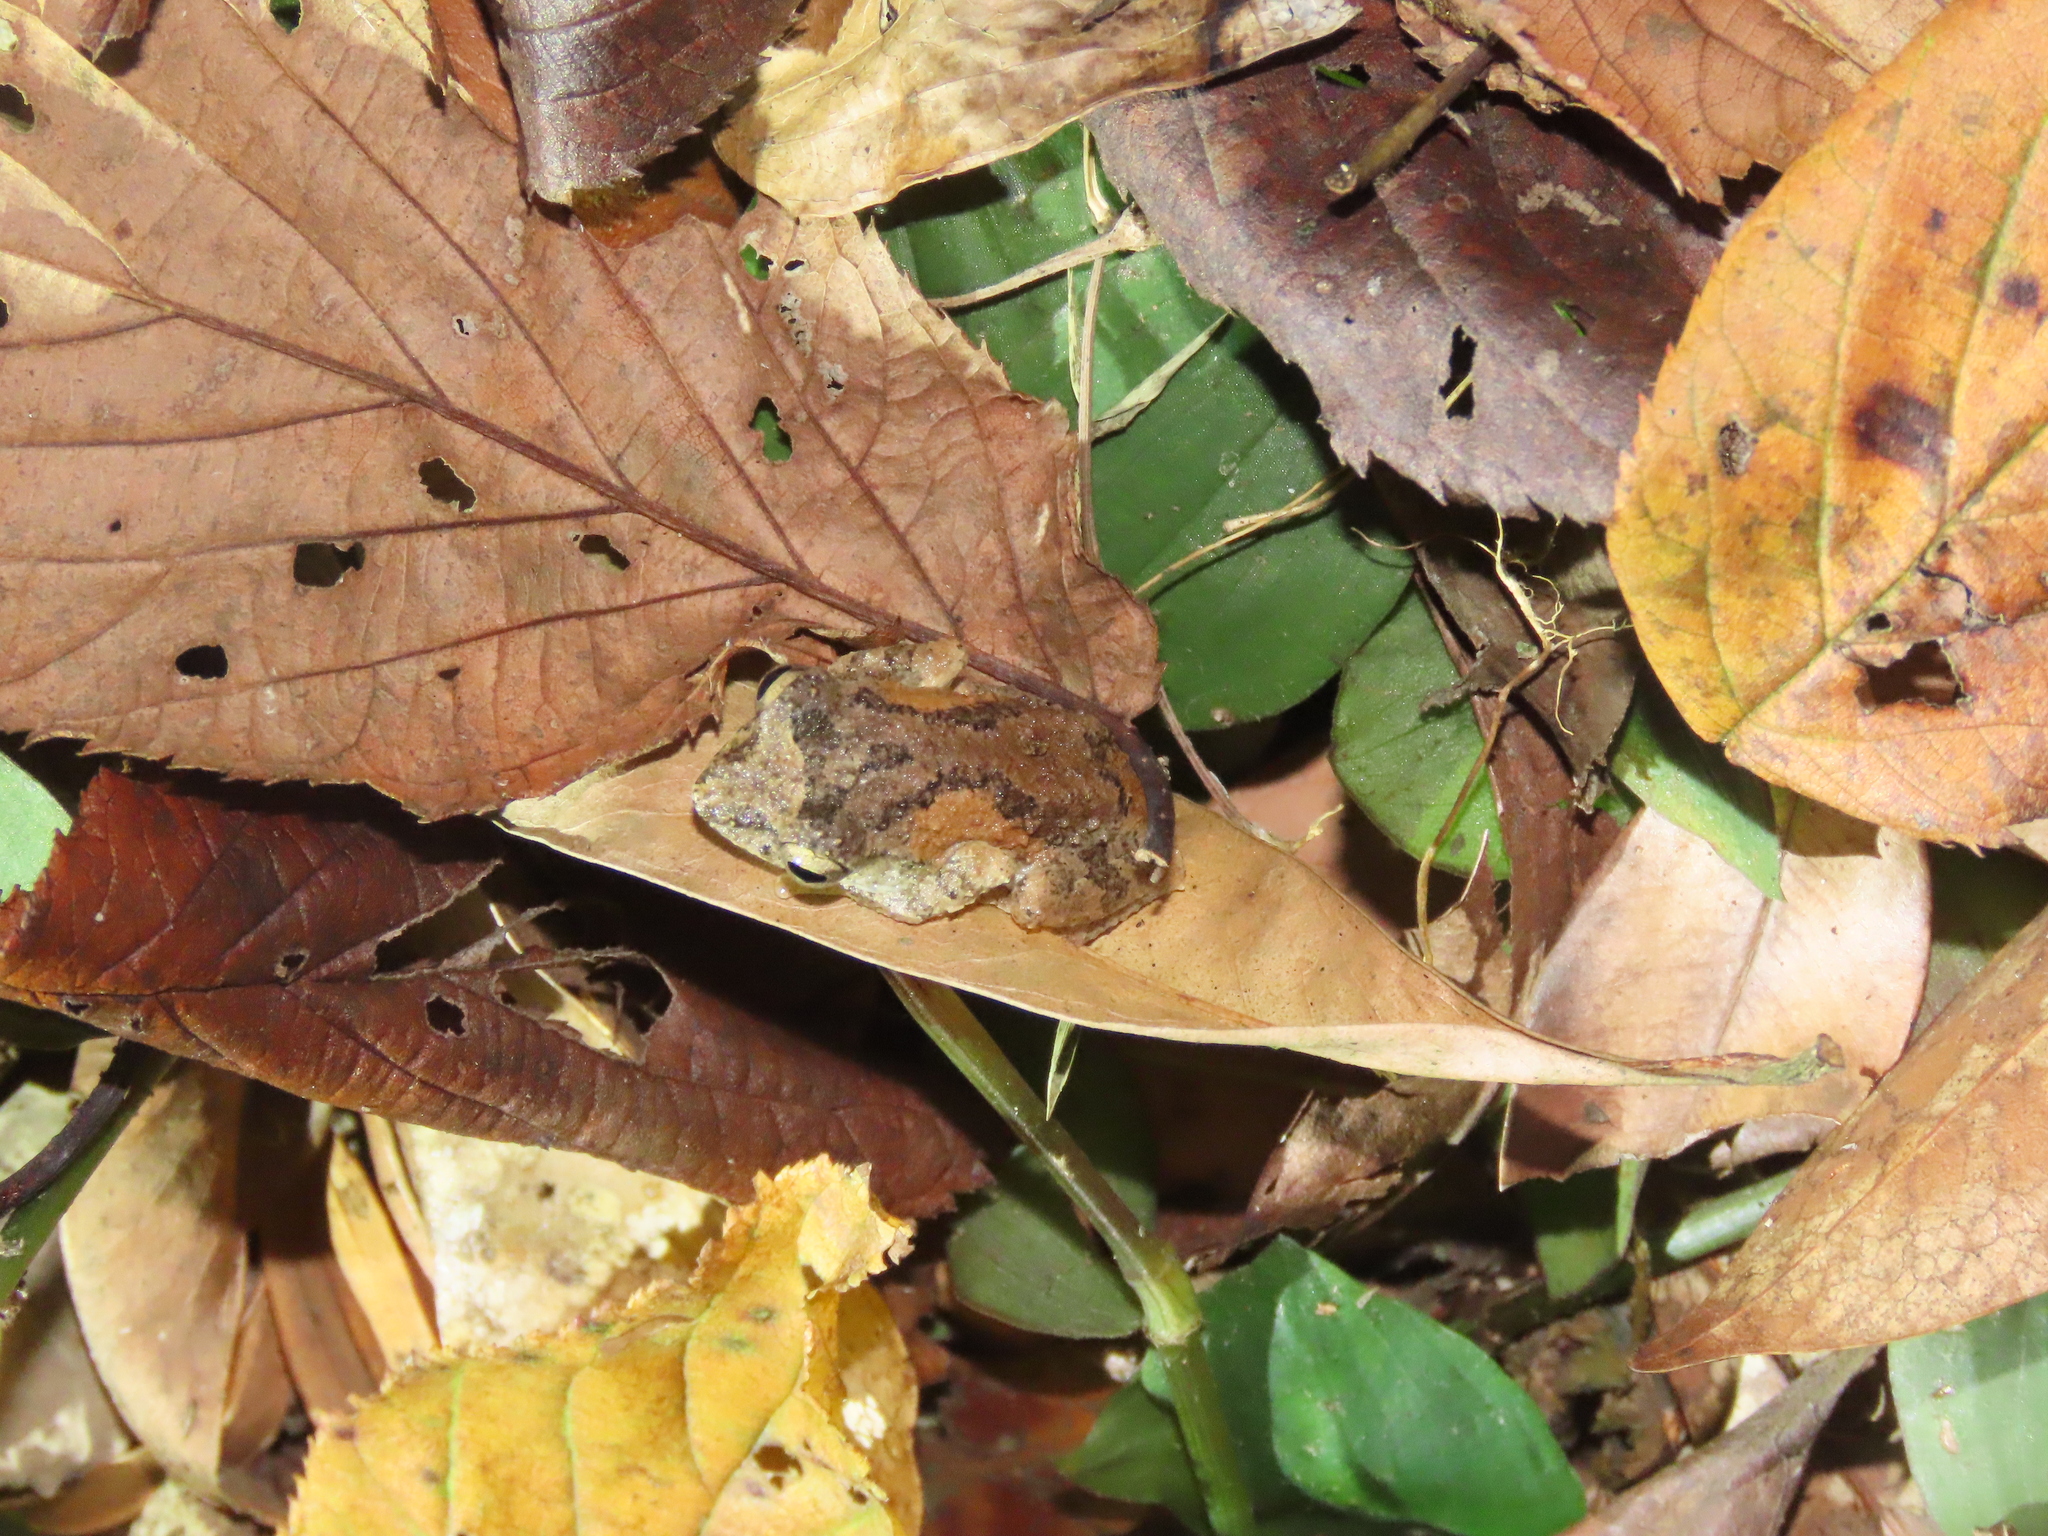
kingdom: Animalia
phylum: Chordata
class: Amphibia
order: Anura
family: Rhacophoridae
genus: Kurixalus
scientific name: Kurixalus idiootocus
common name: Temple treefrog
